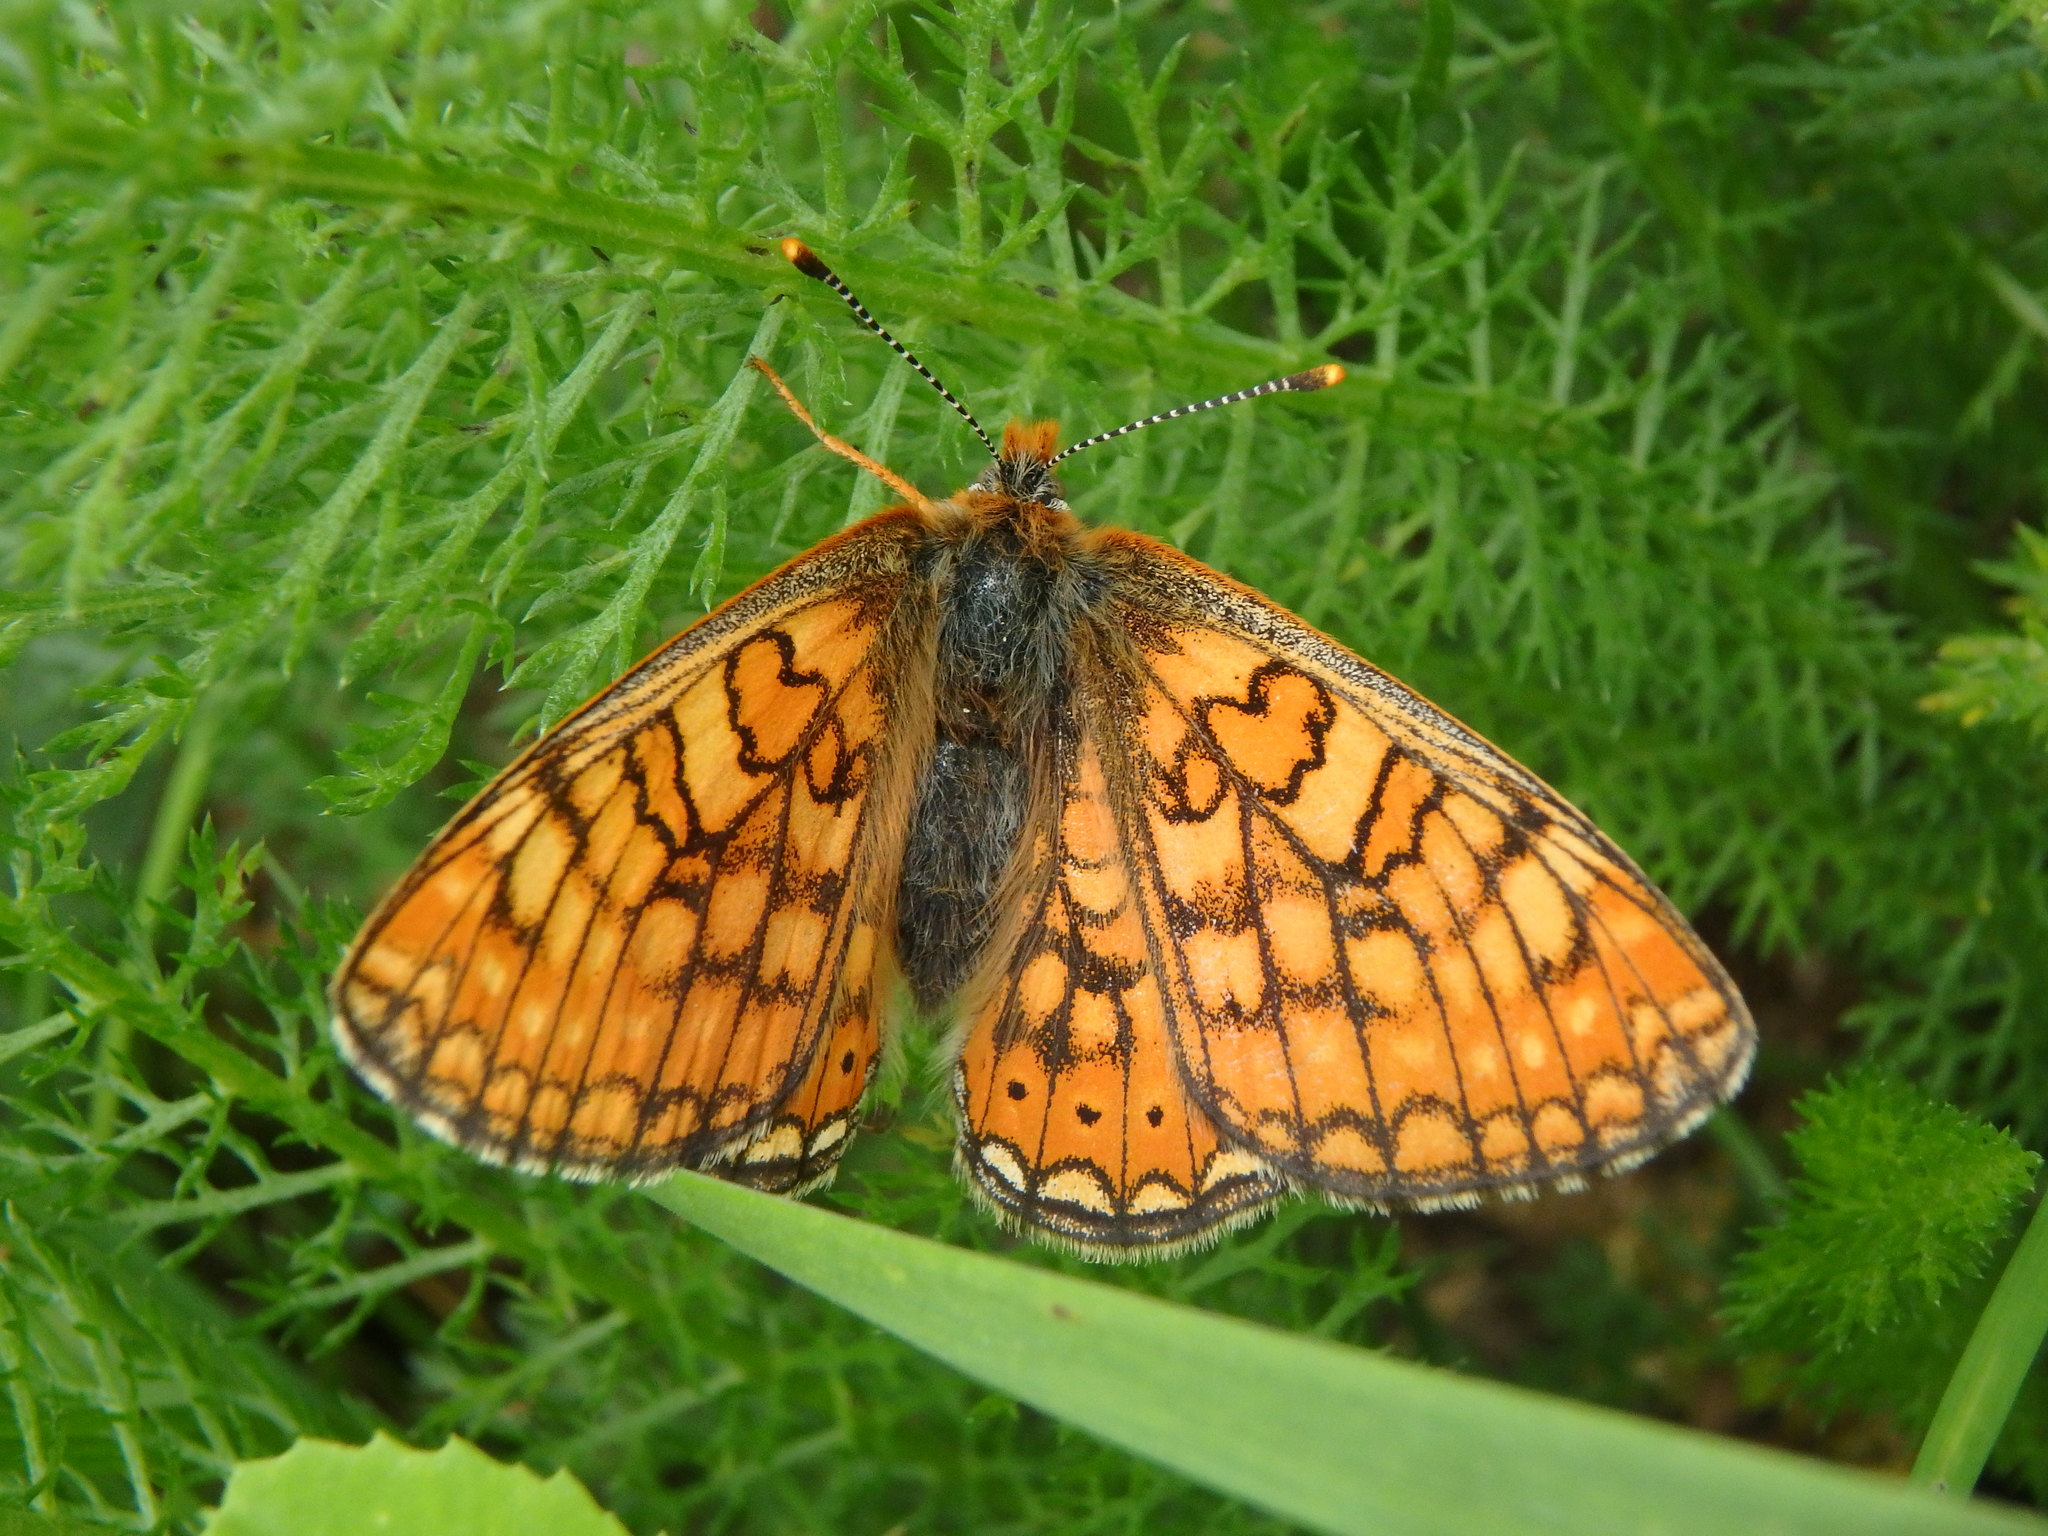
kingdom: Animalia
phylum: Arthropoda
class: Insecta
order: Lepidoptera
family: Nymphalidae
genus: Euphydryas
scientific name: Euphydryas aurinia
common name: Marsh fritillary
